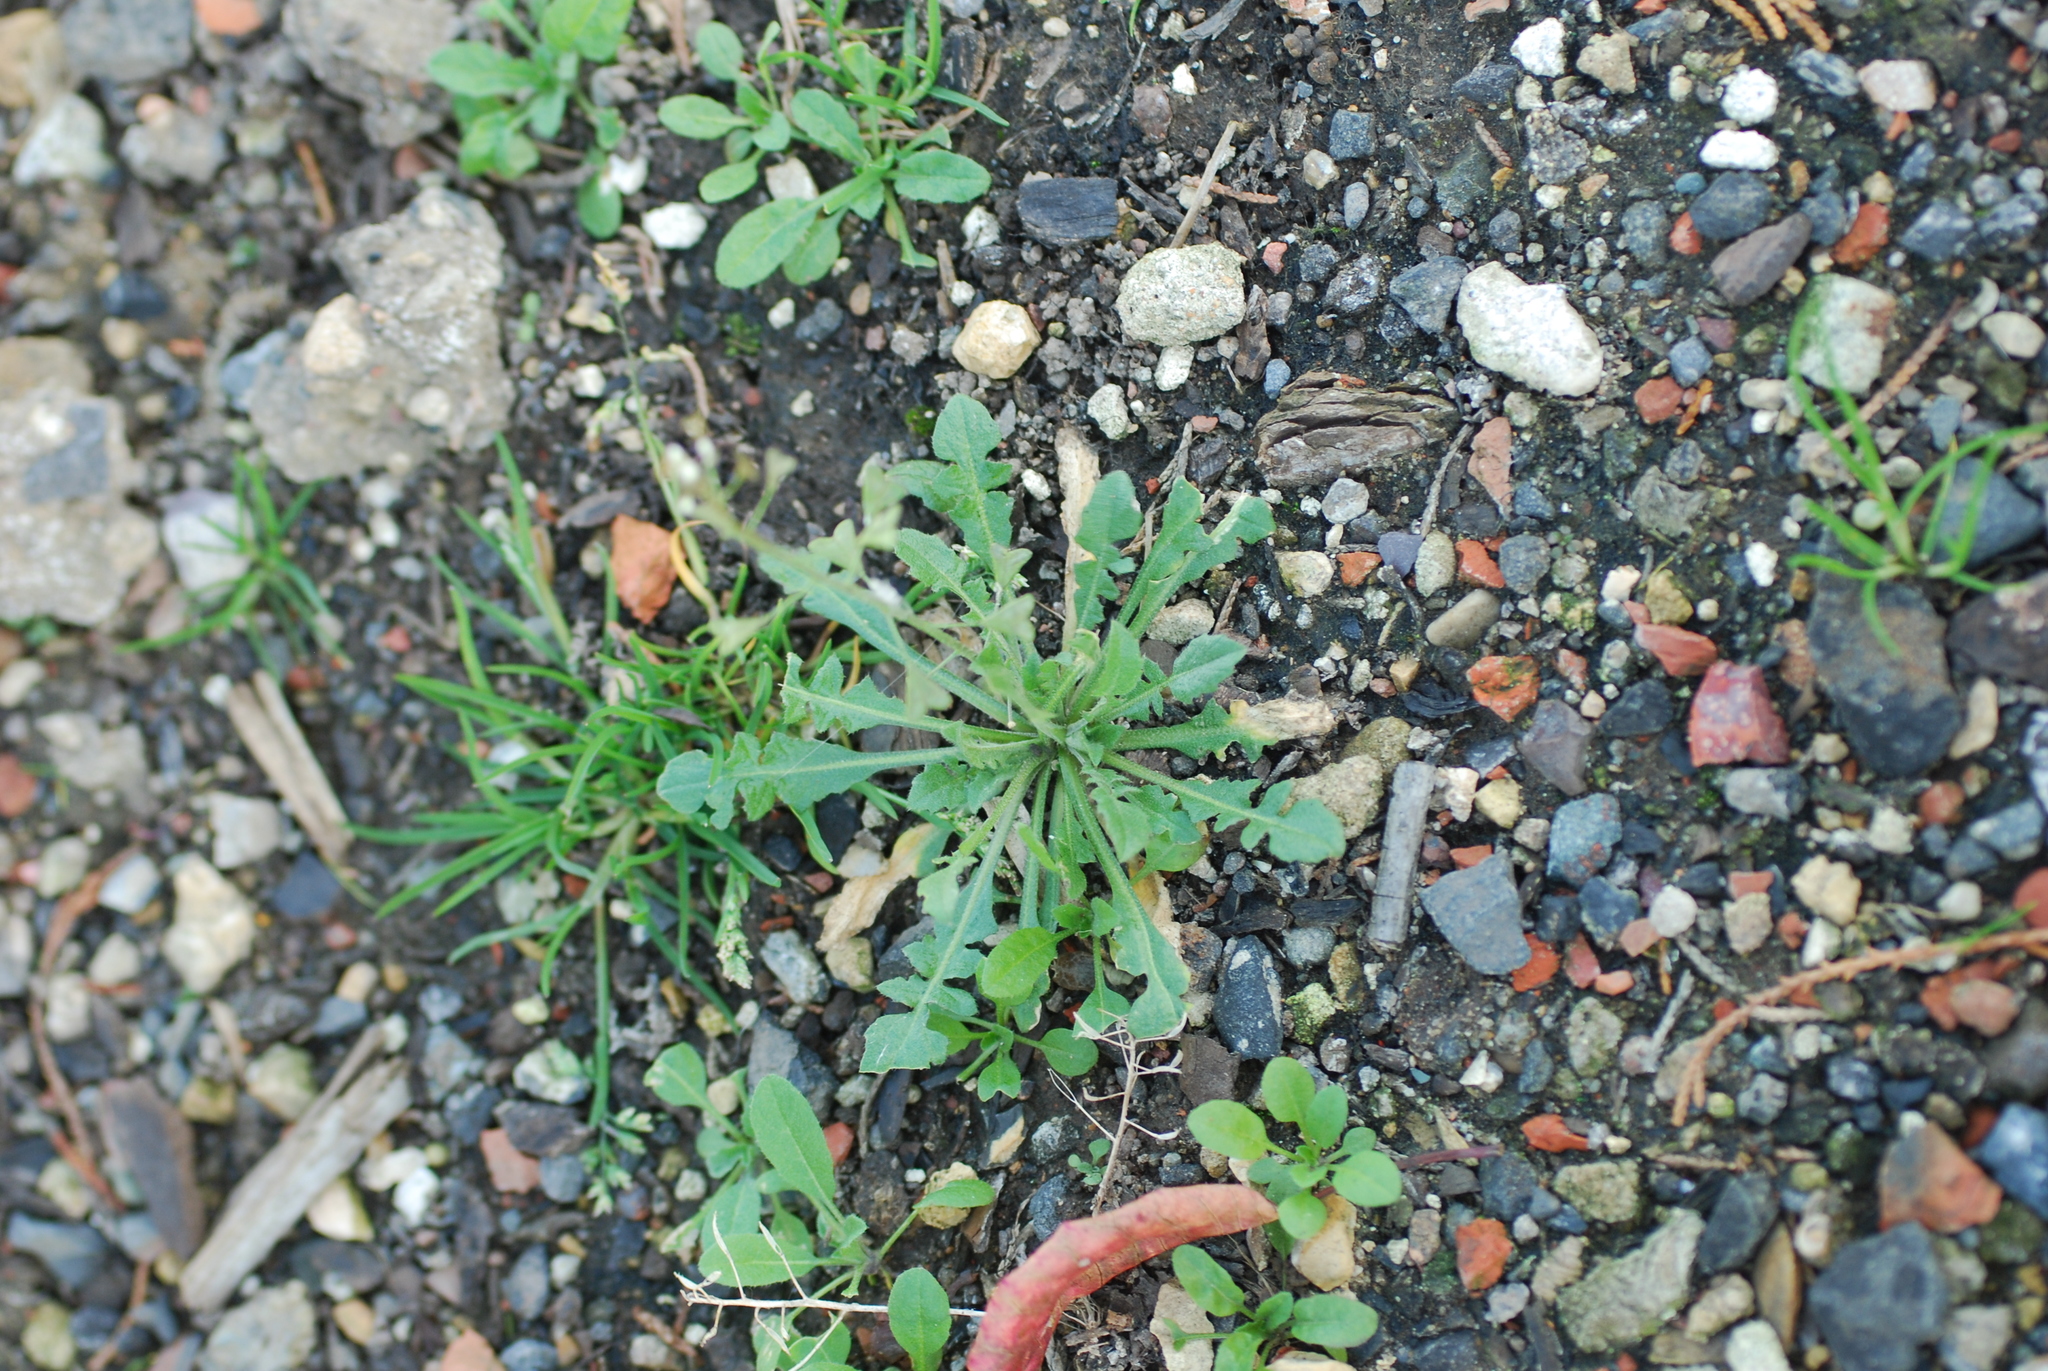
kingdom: Plantae
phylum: Tracheophyta
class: Magnoliopsida
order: Brassicales
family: Brassicaceae
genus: Capsella
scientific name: Capsella bursa-pastoris
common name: Shepherd's purse
